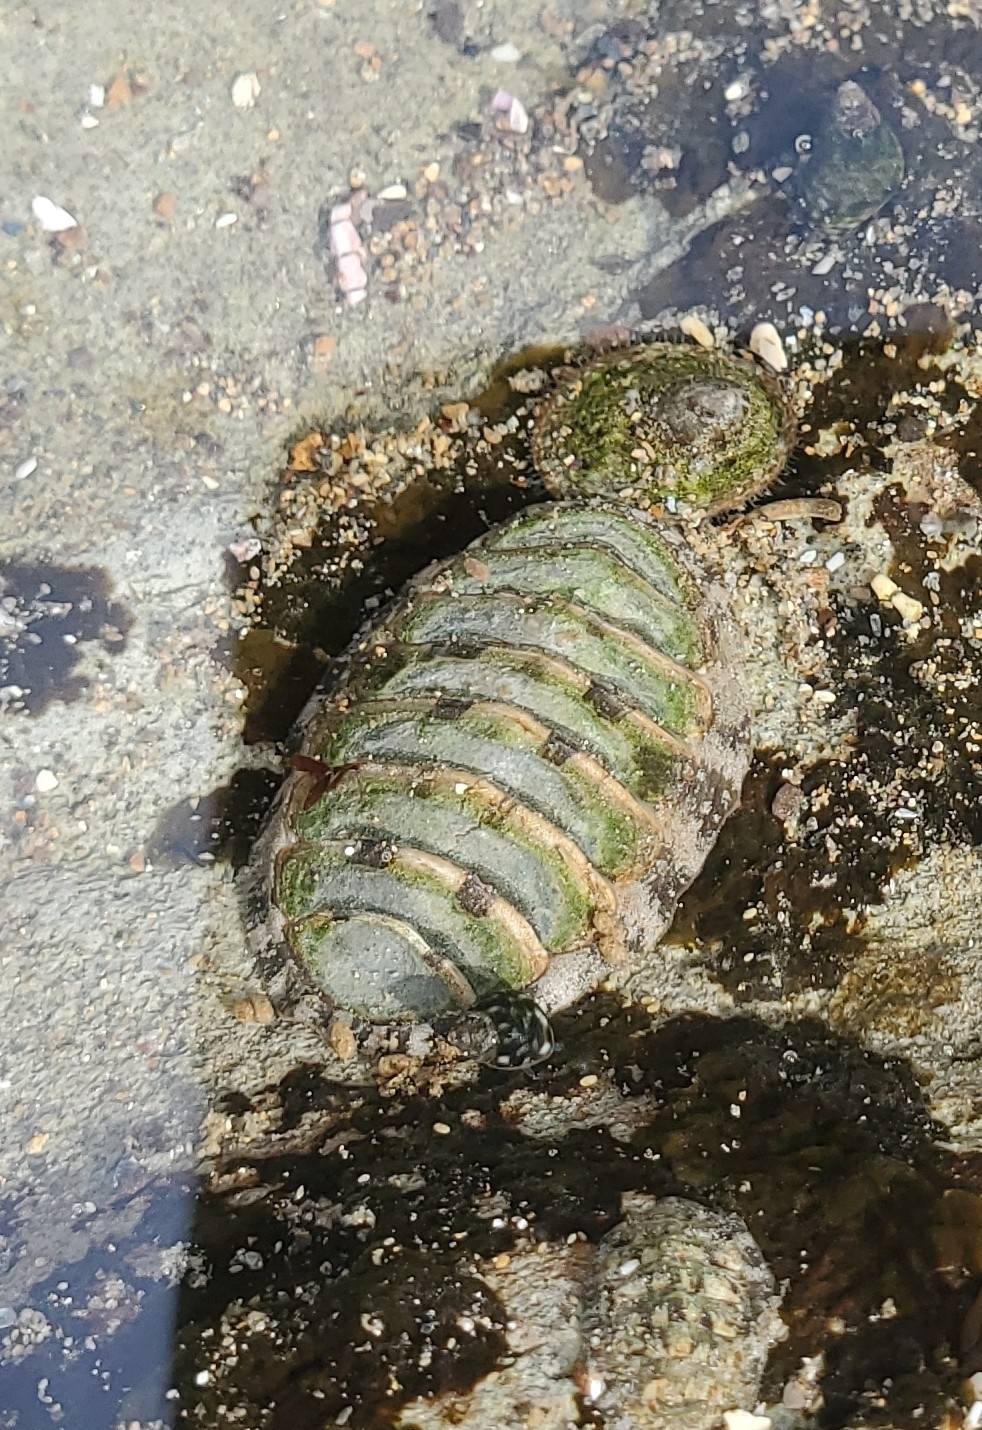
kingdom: Animalia
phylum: Mollusca
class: Polyplacophora
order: Chitonida
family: Tonicellidae
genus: Cyanoplax
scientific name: Cyanoplax hartwegii
